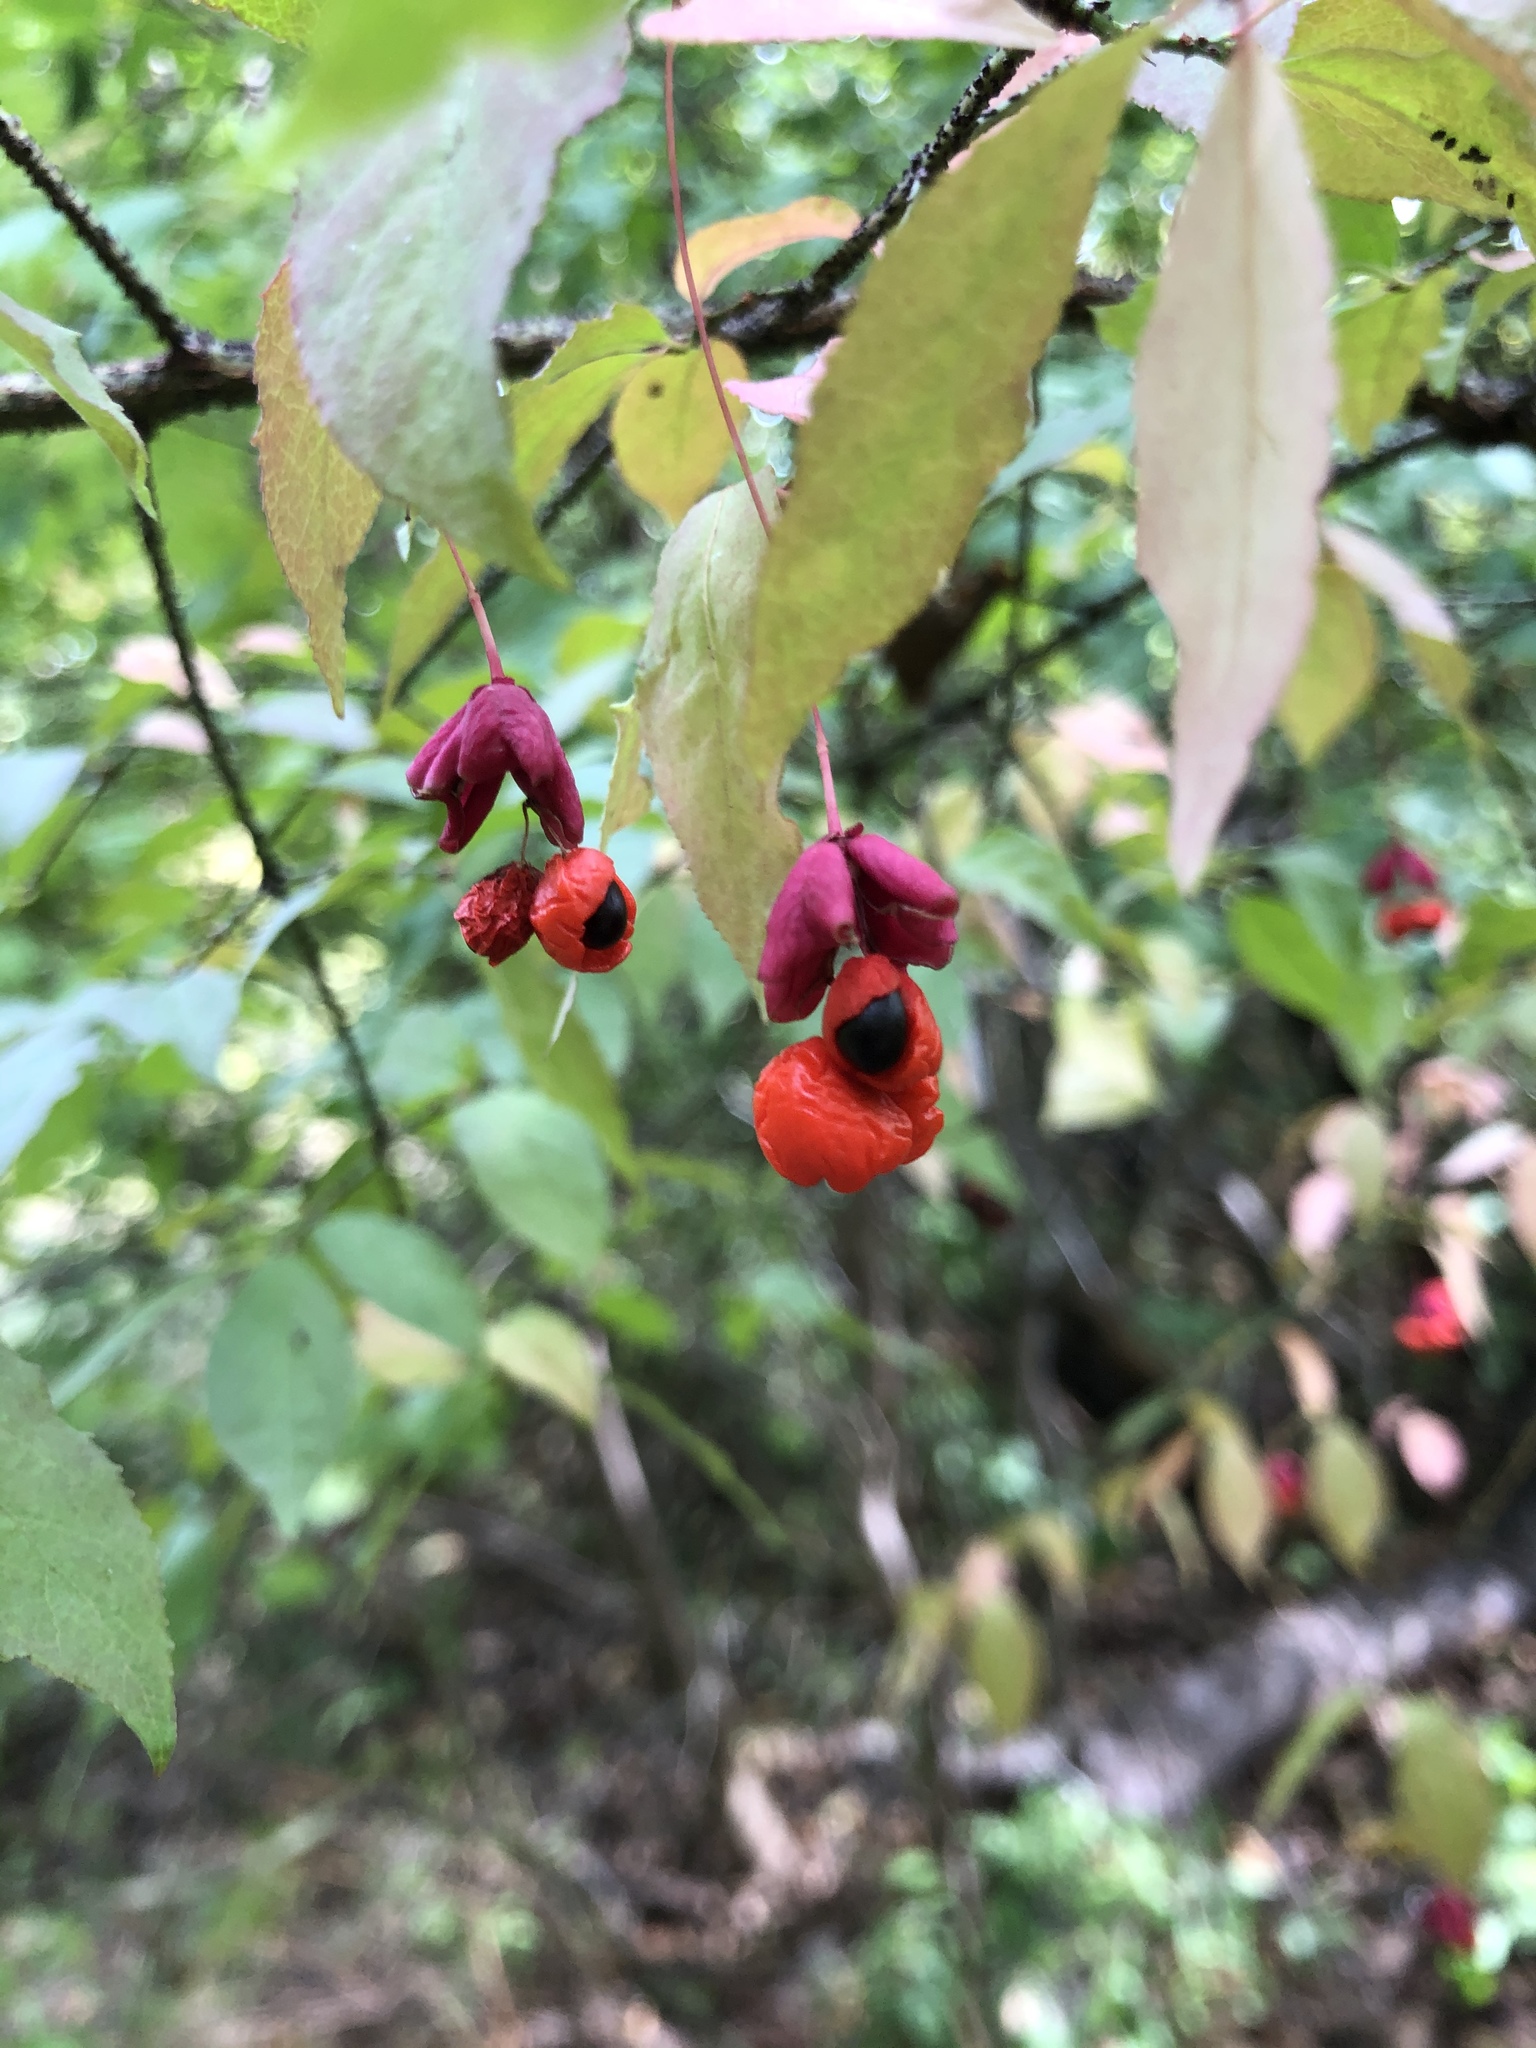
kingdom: Plantae
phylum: Tracheophyta
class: Magnoliopsida
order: Celastrales
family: Celastraceae
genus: Euonymus
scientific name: Euonymus verrucosus
